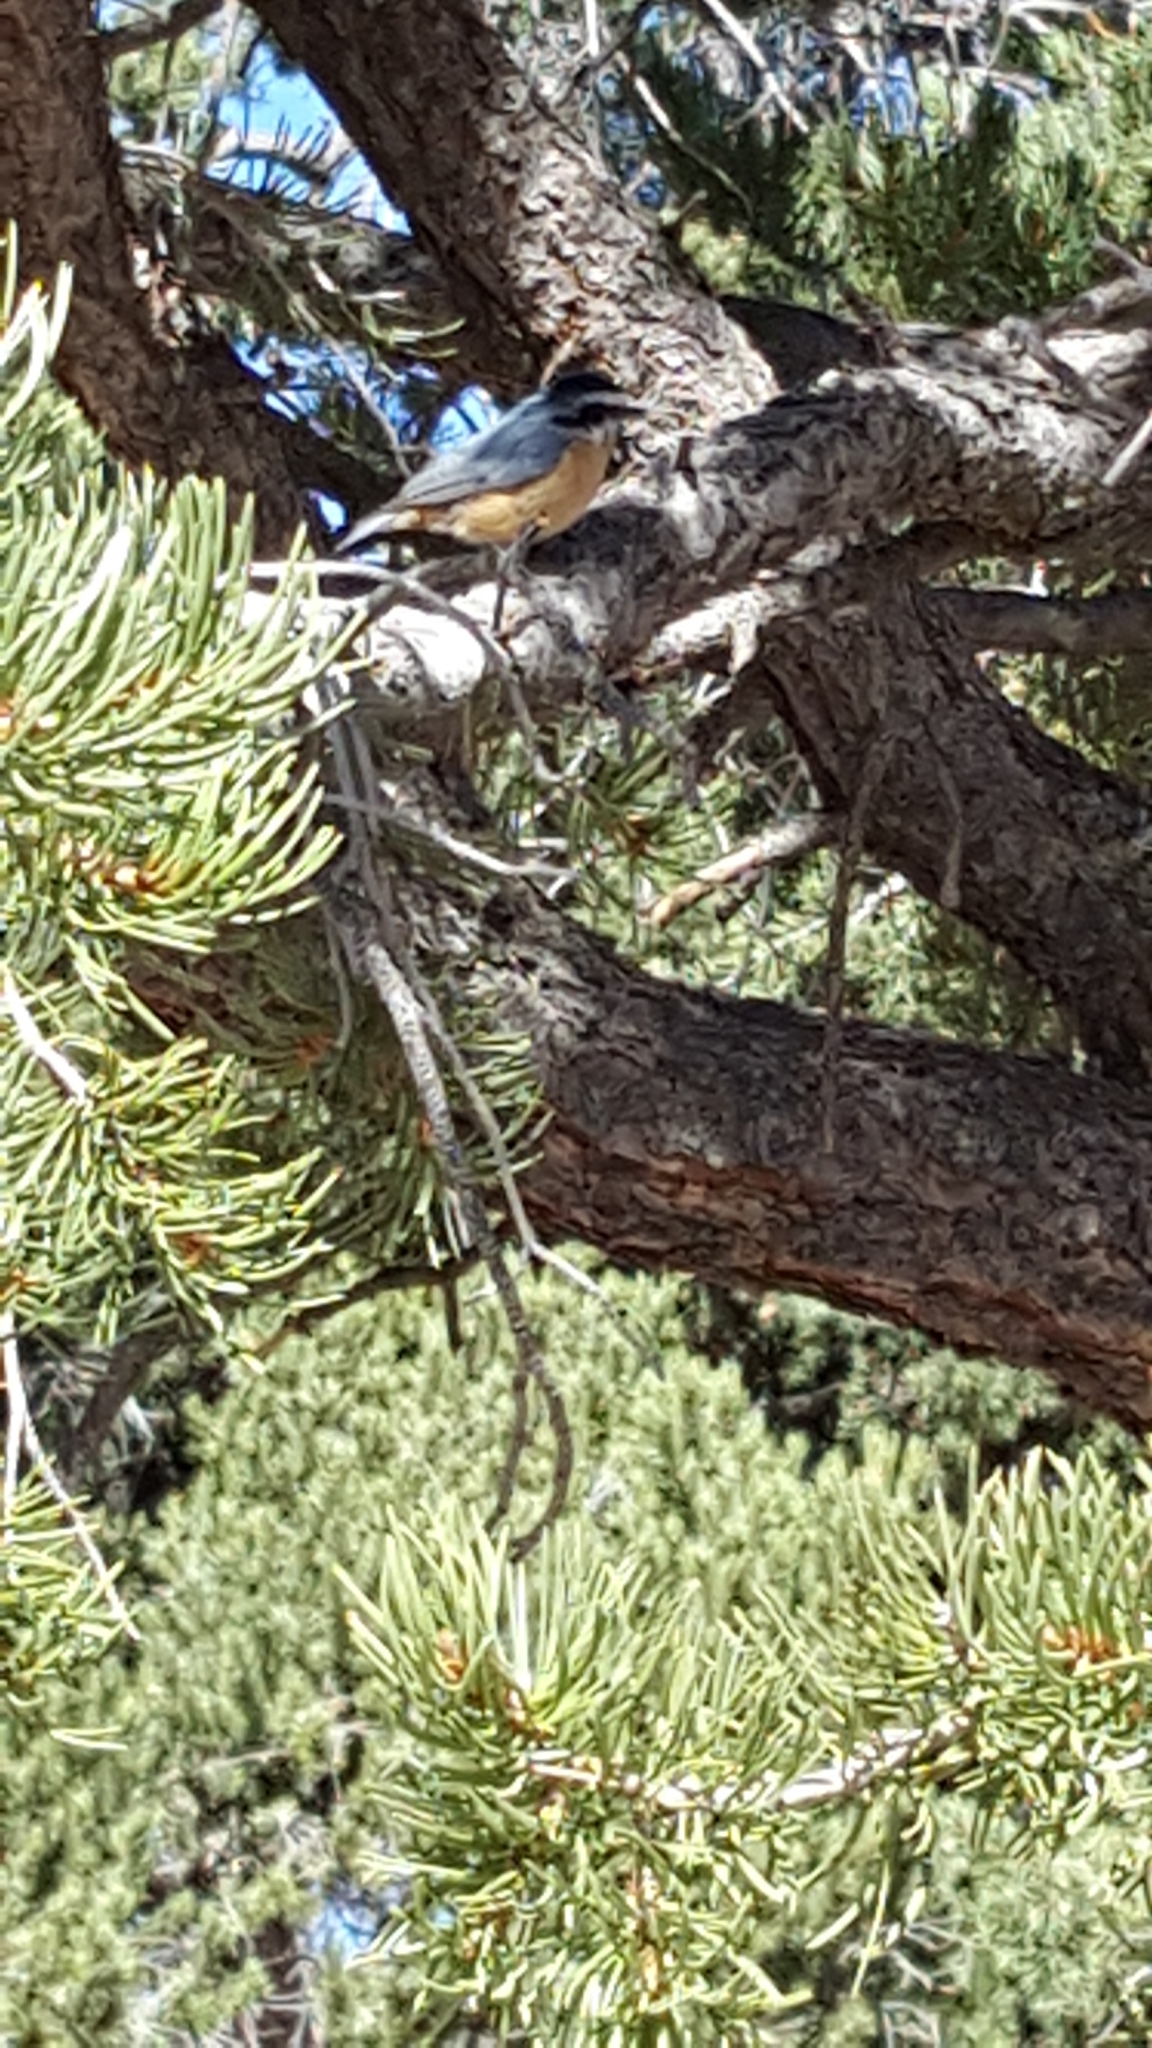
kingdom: Animalia
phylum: Chordata
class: Aves
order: Passeriformes
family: Sittidae
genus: Sitta
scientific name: Sitta canadensis
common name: Red-breasted nuthatch
